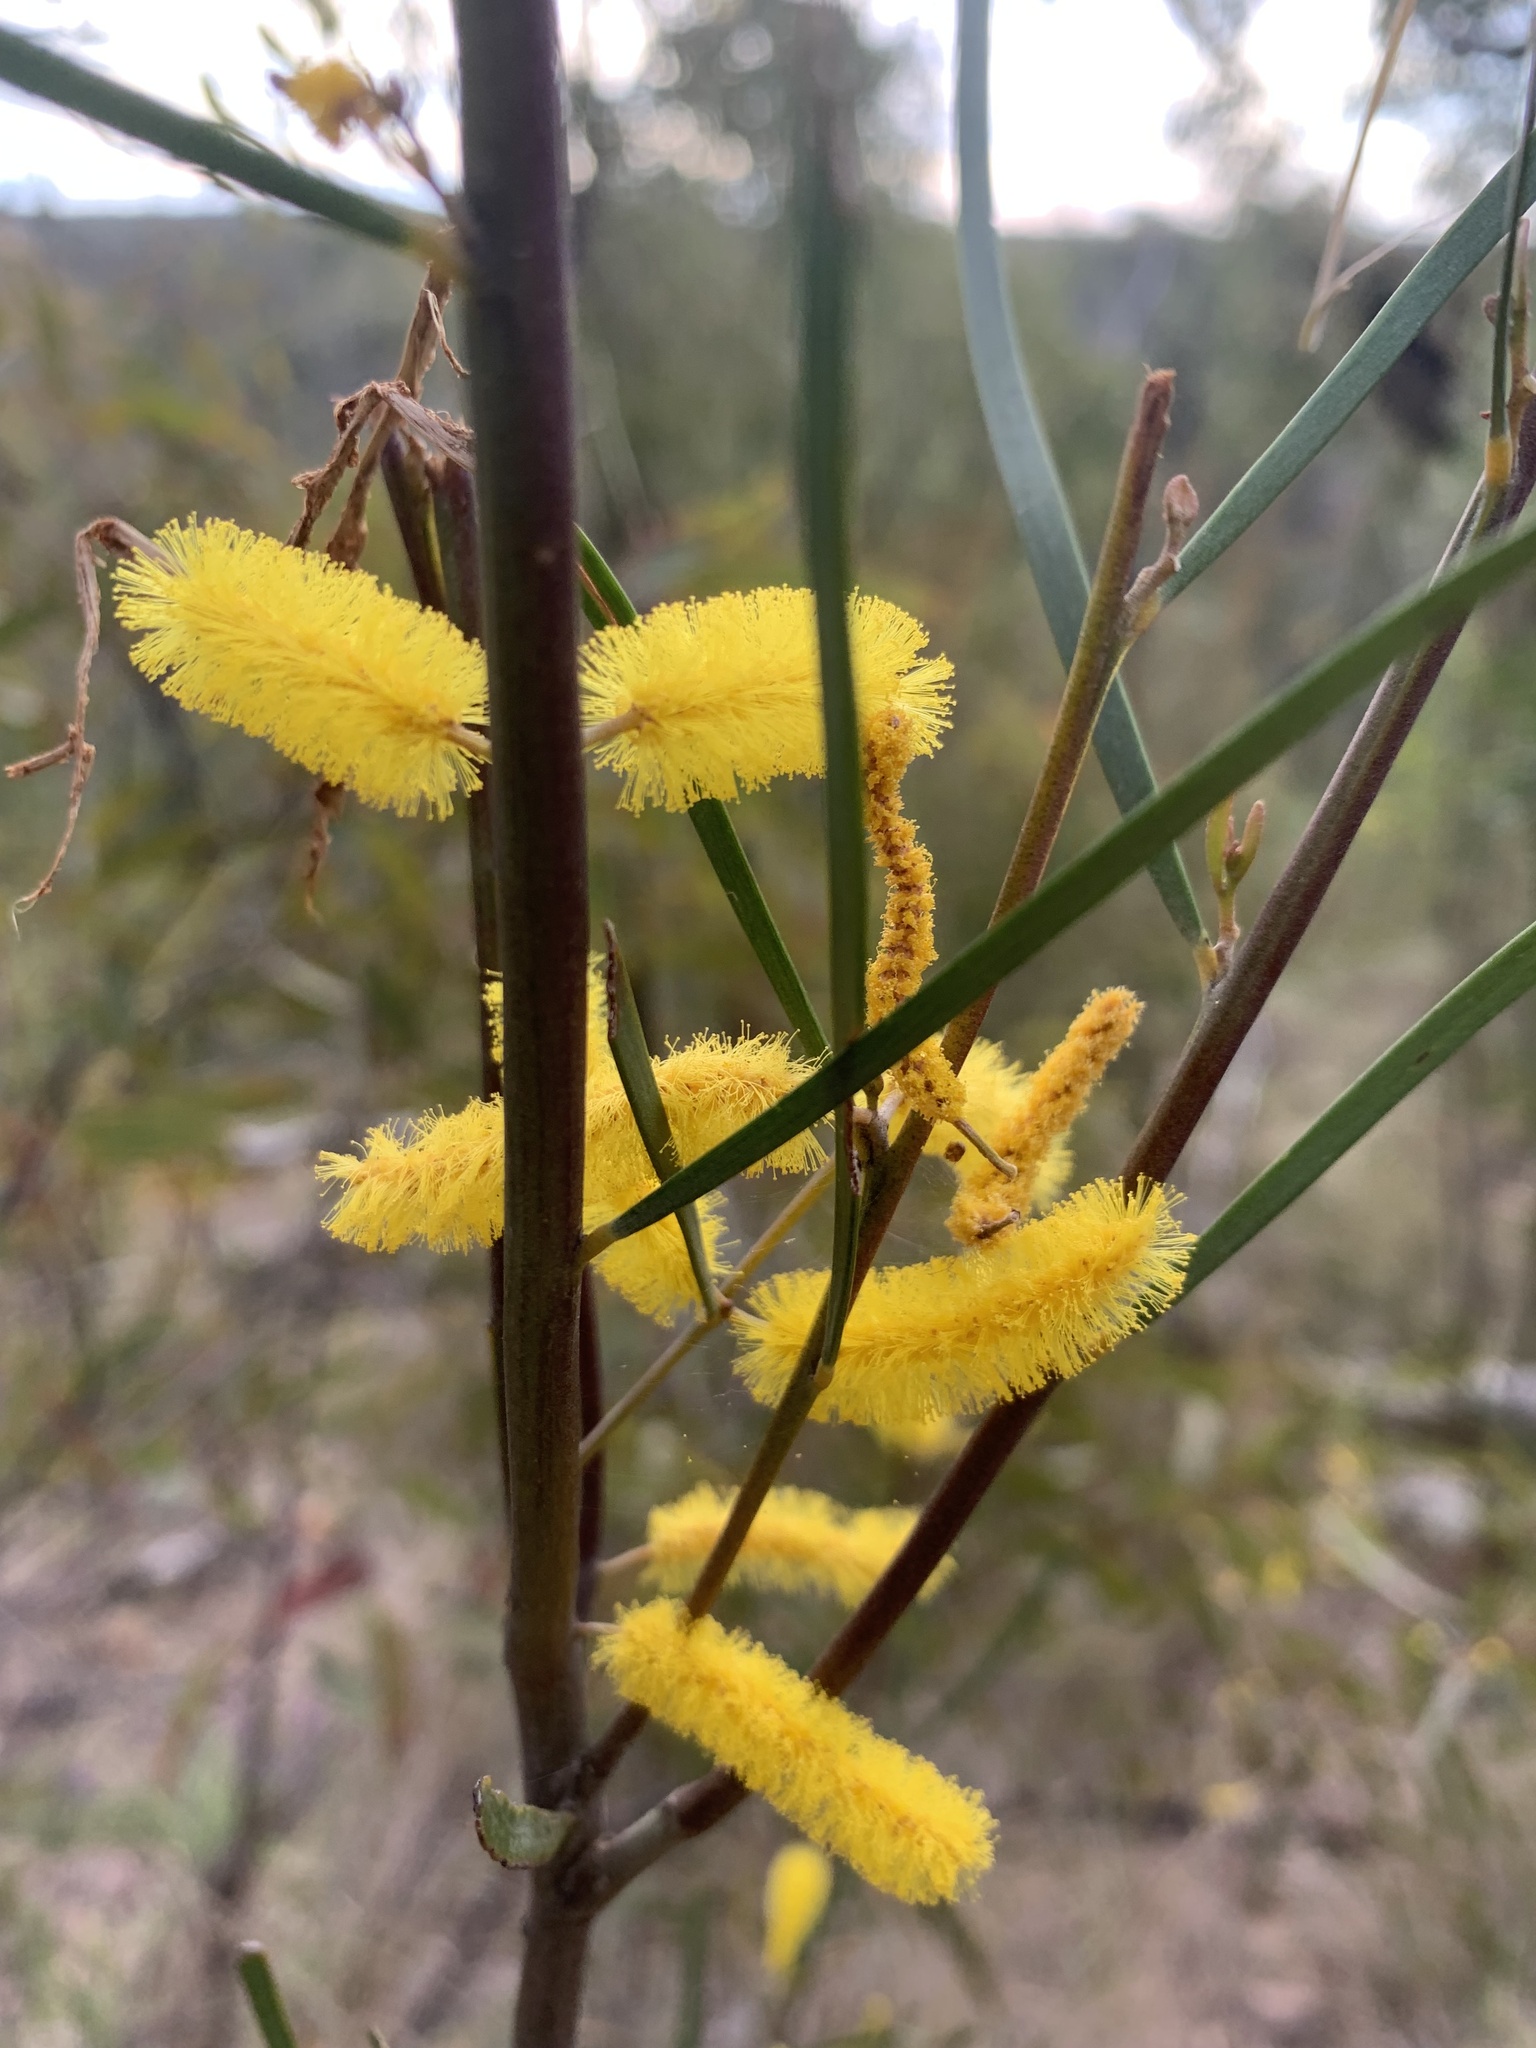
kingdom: Plantae
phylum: Tracheophyta
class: Magnoliopsida
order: Fabales
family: Fabaceae
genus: Acacia
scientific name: Acacia caroleae
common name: Narrow-leaf currawang
